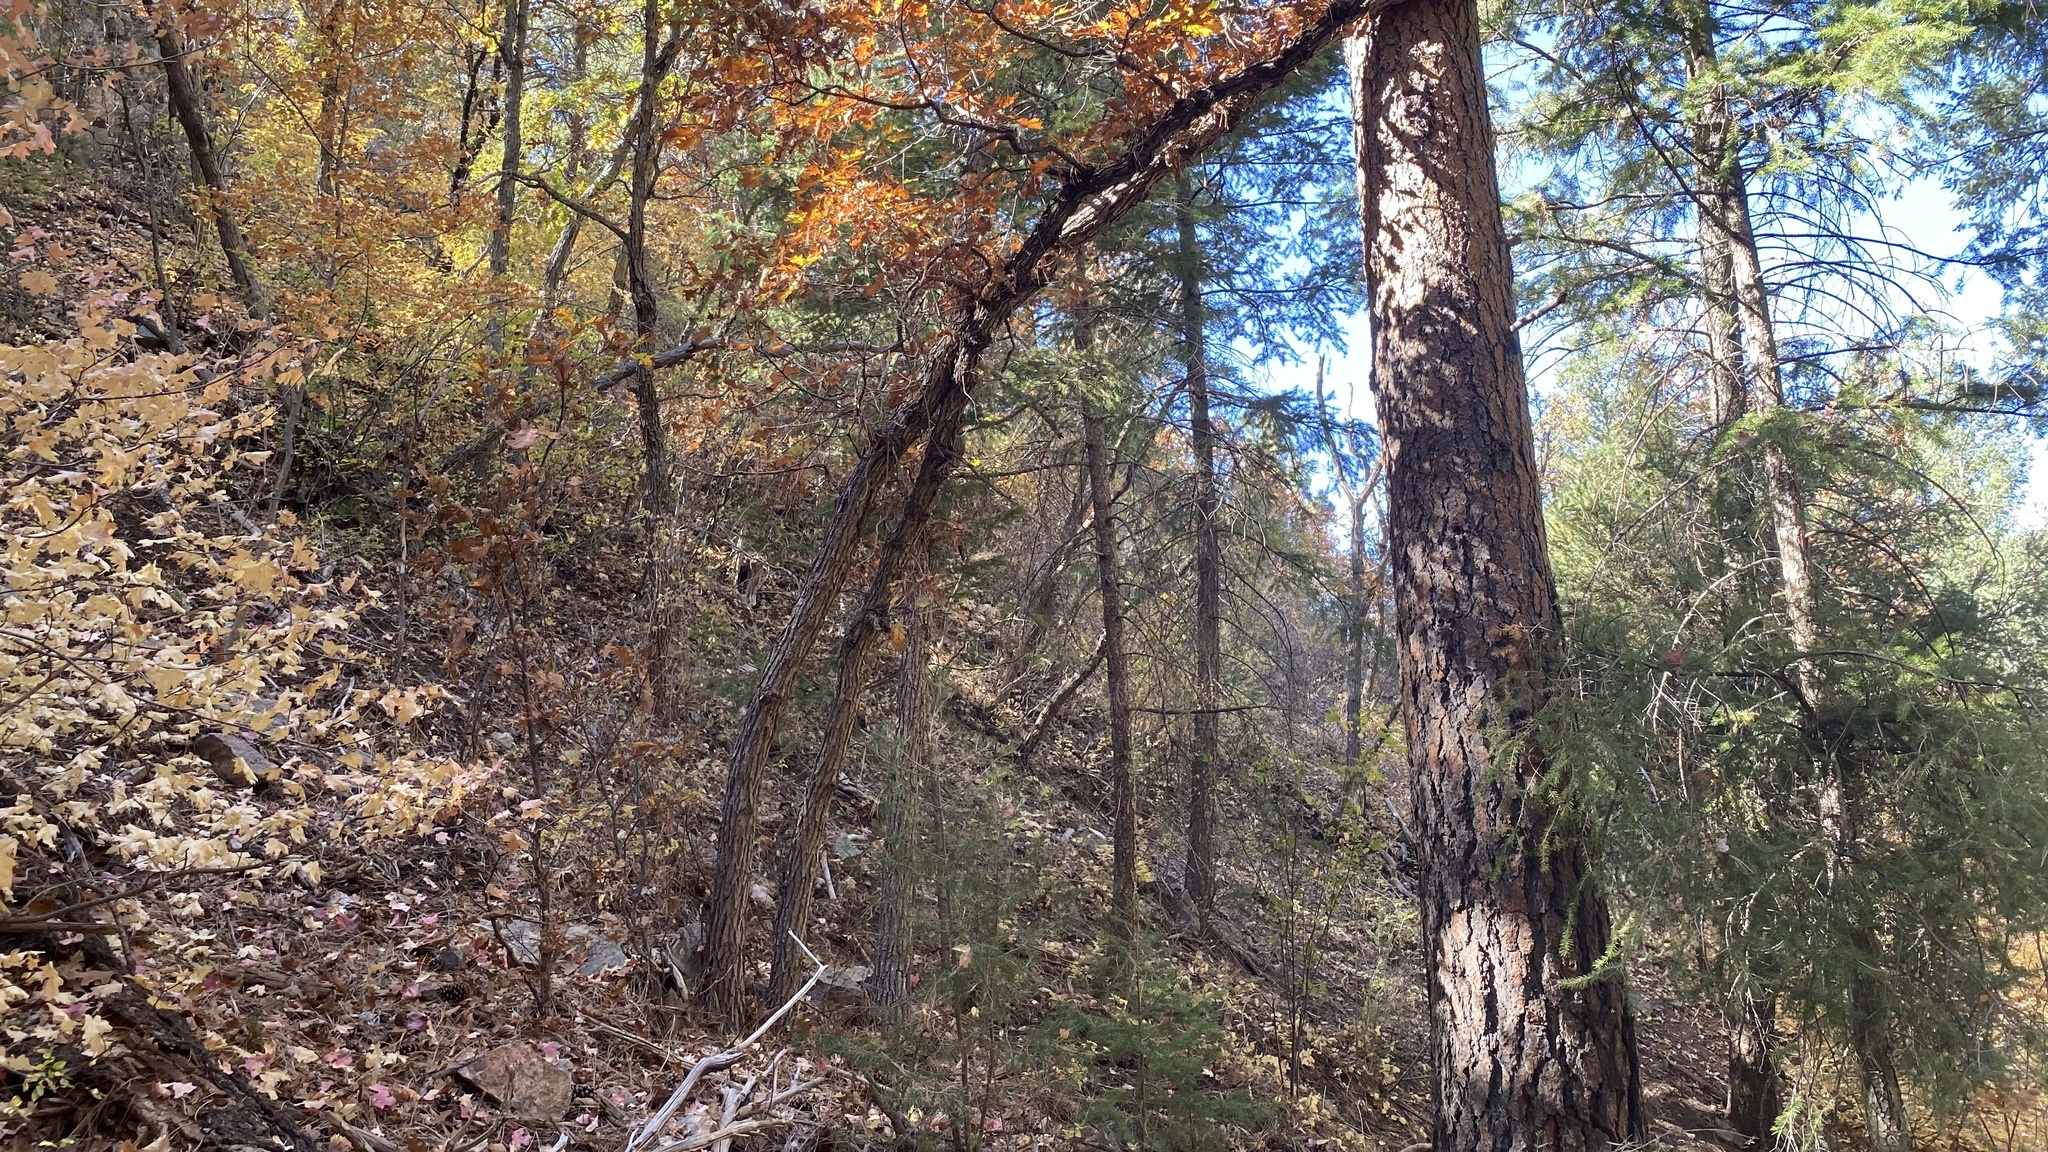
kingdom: Plantae
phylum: Tracheophyta
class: Magnoliopsida
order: Fagales
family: Fagaceae
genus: Quercus
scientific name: Quercus gambelii
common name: Gambel oak
